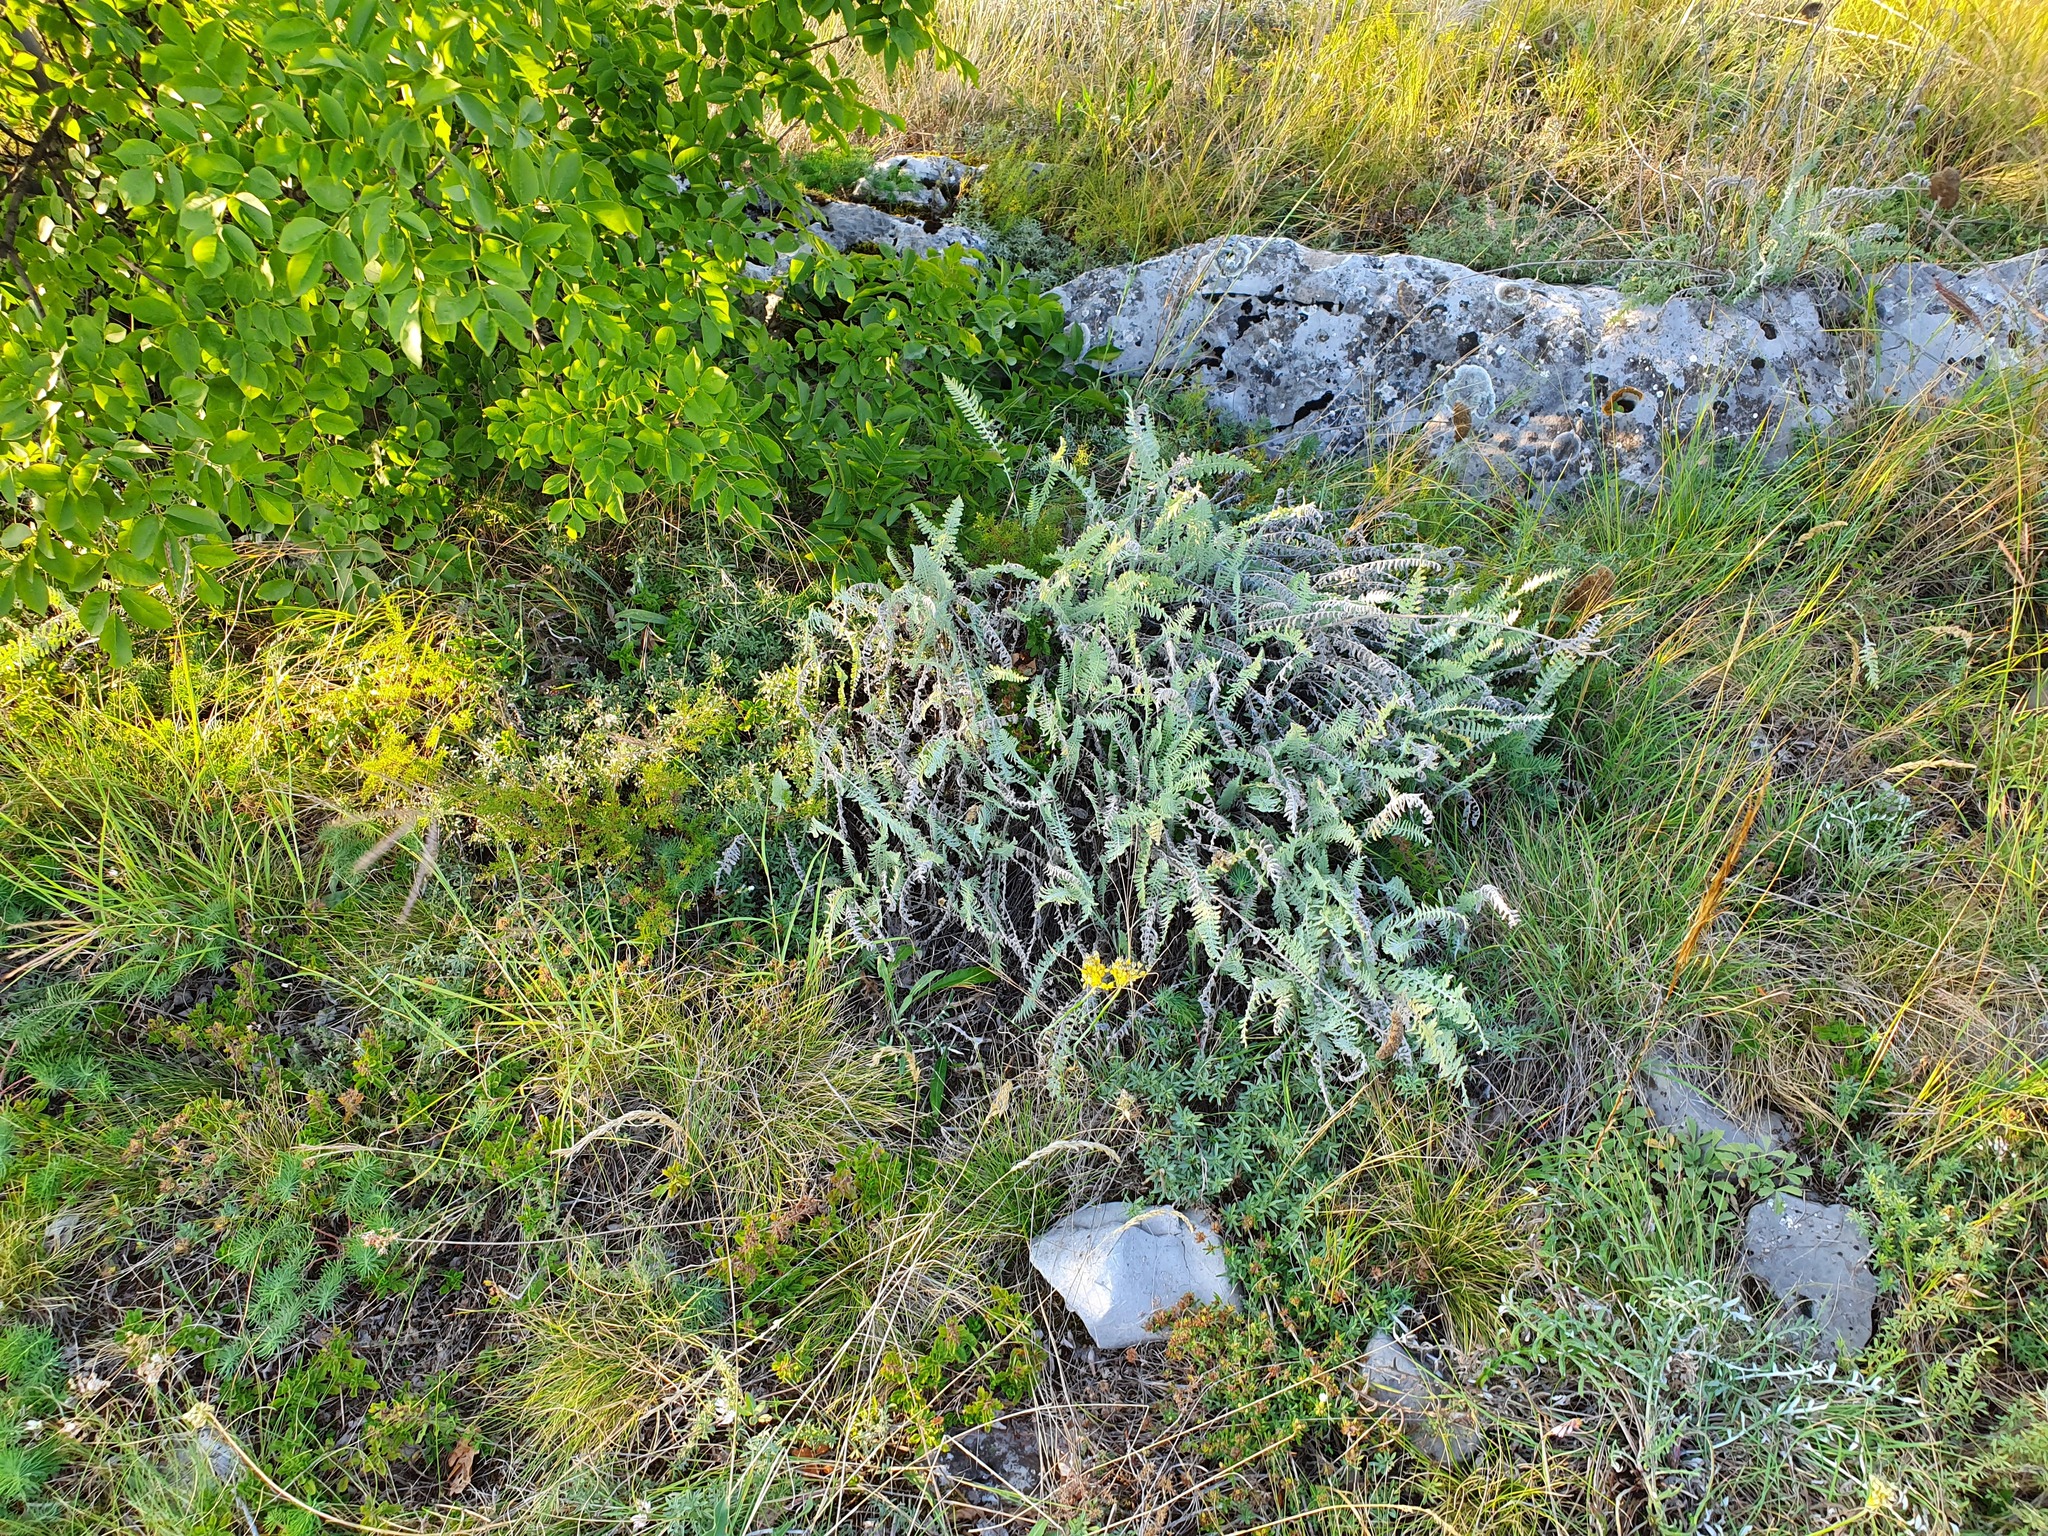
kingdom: Plantae
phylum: Tracheophyta
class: Magnoliopsida
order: Asterales
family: Asteraceae
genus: Achillea
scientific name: Achillea clypeolata
